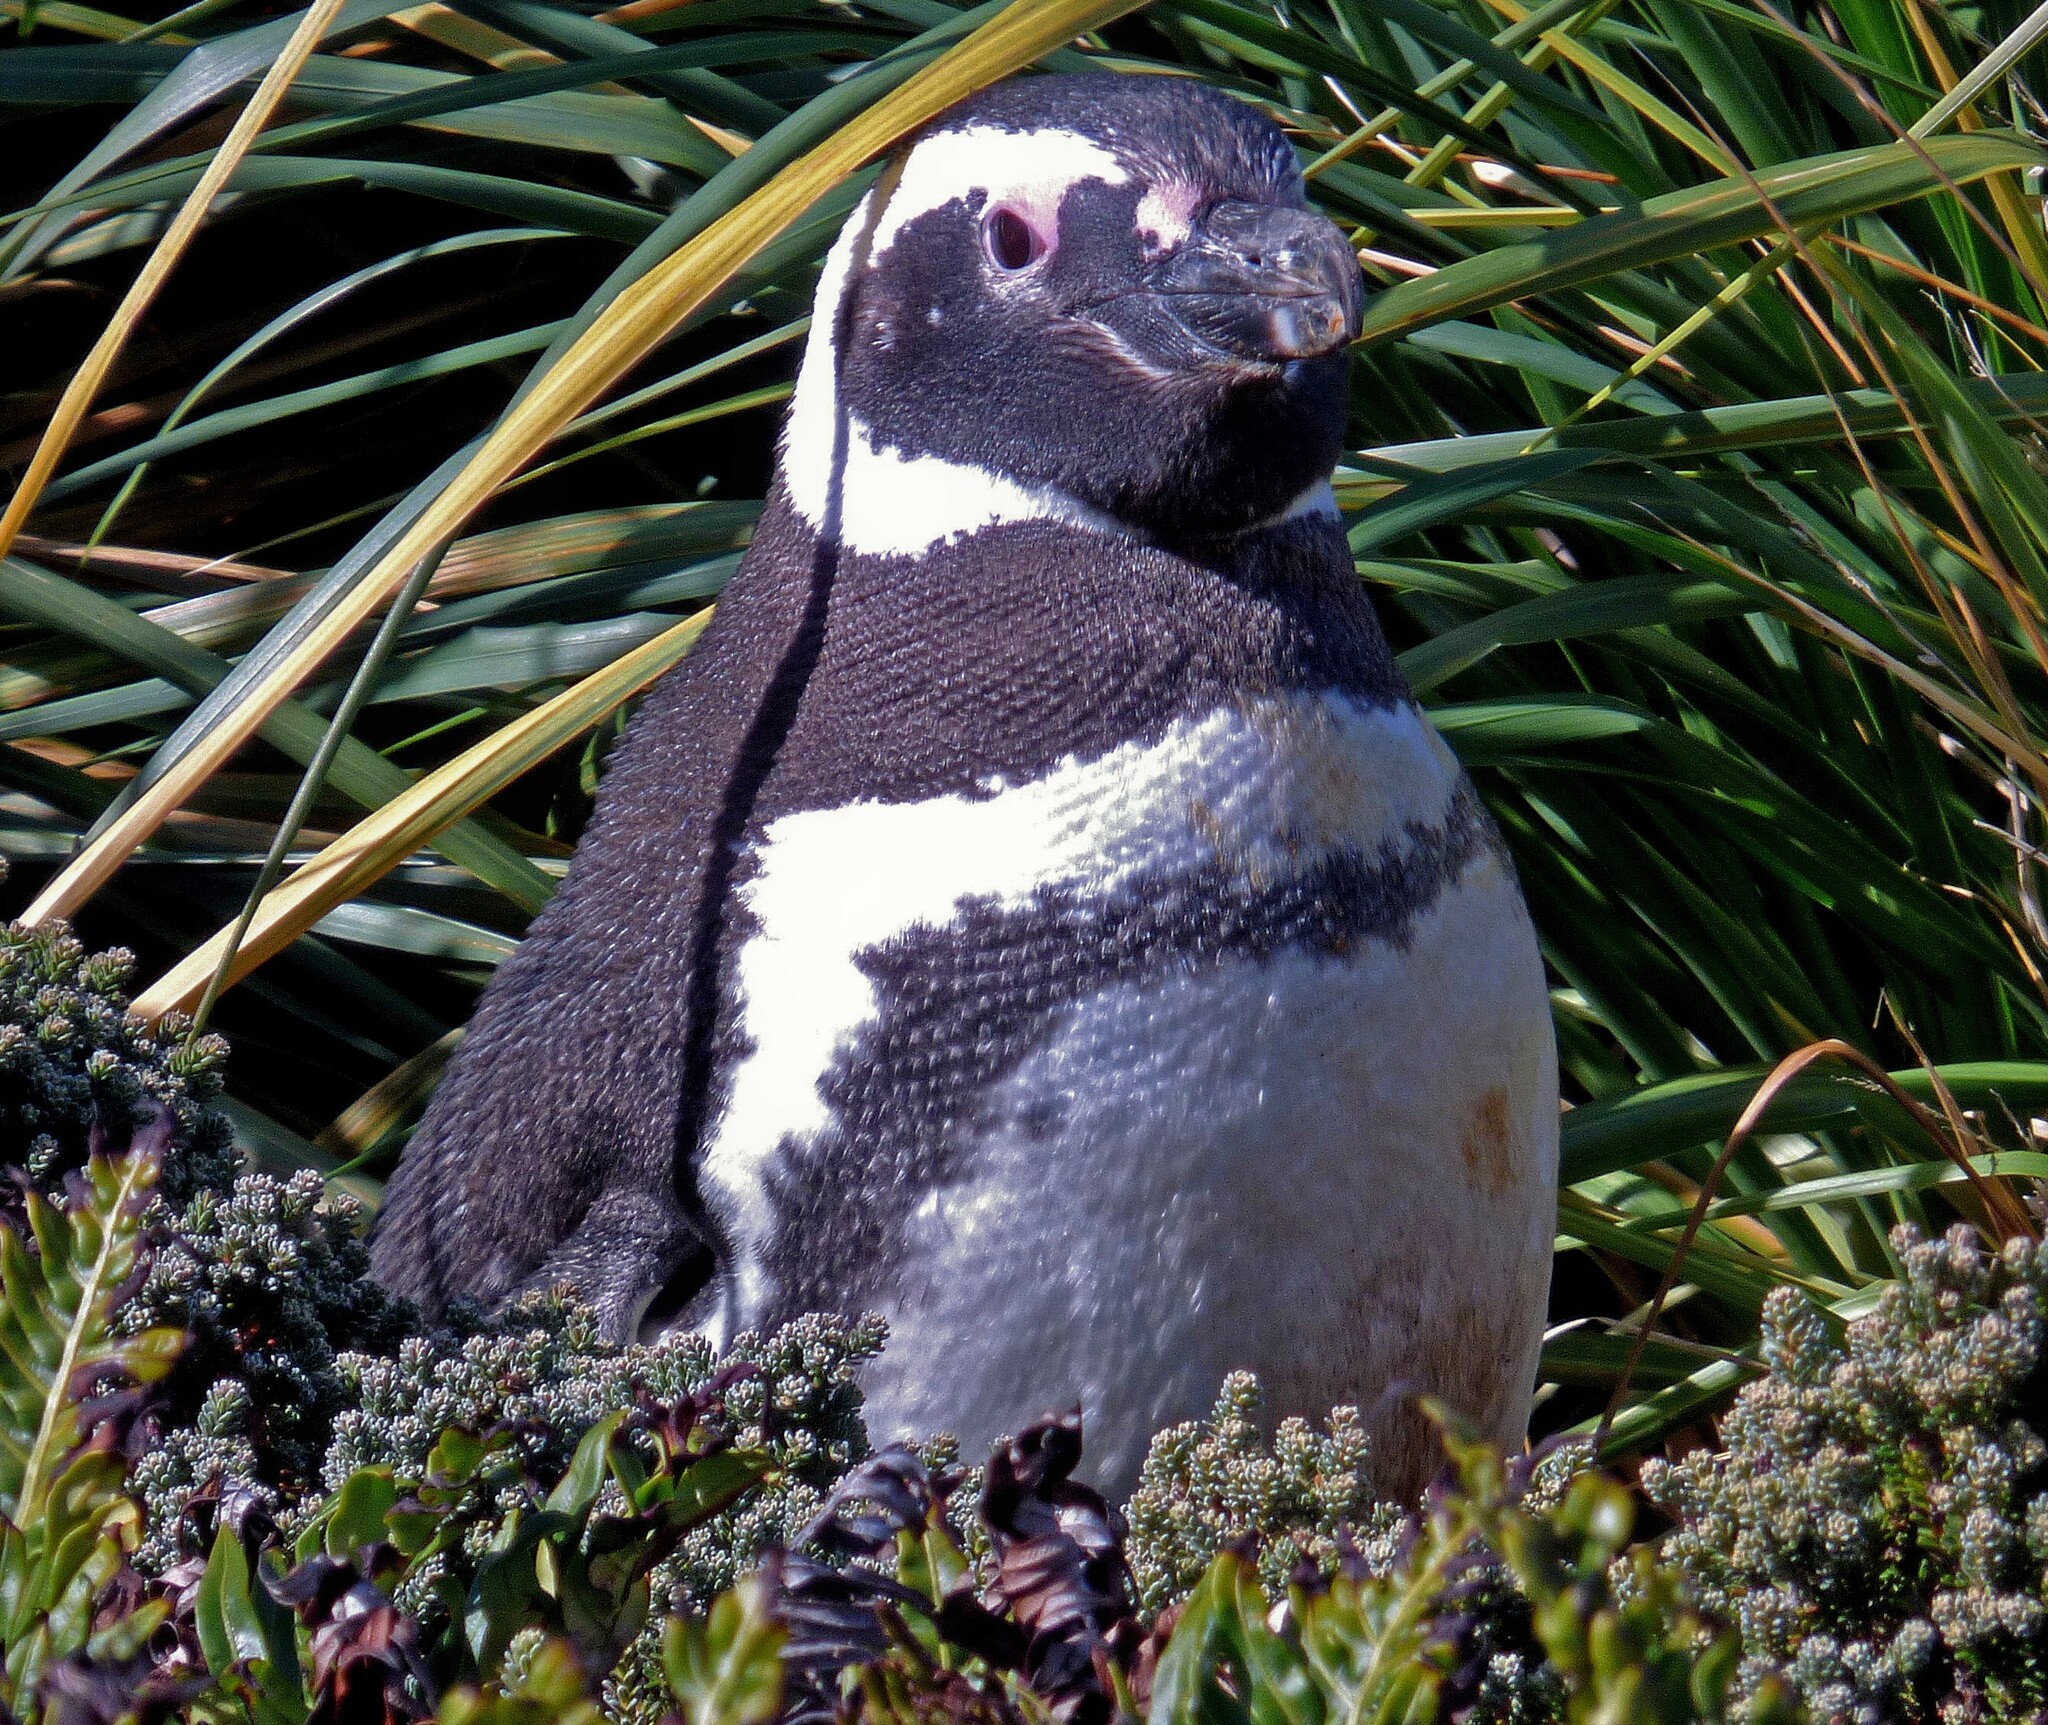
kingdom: Animalia
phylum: Chordata
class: Aves
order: Sphenisciformes
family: Spheniscidae
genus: Spheniscus
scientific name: Spheniscus magellanicus
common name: Magellanic penguin
